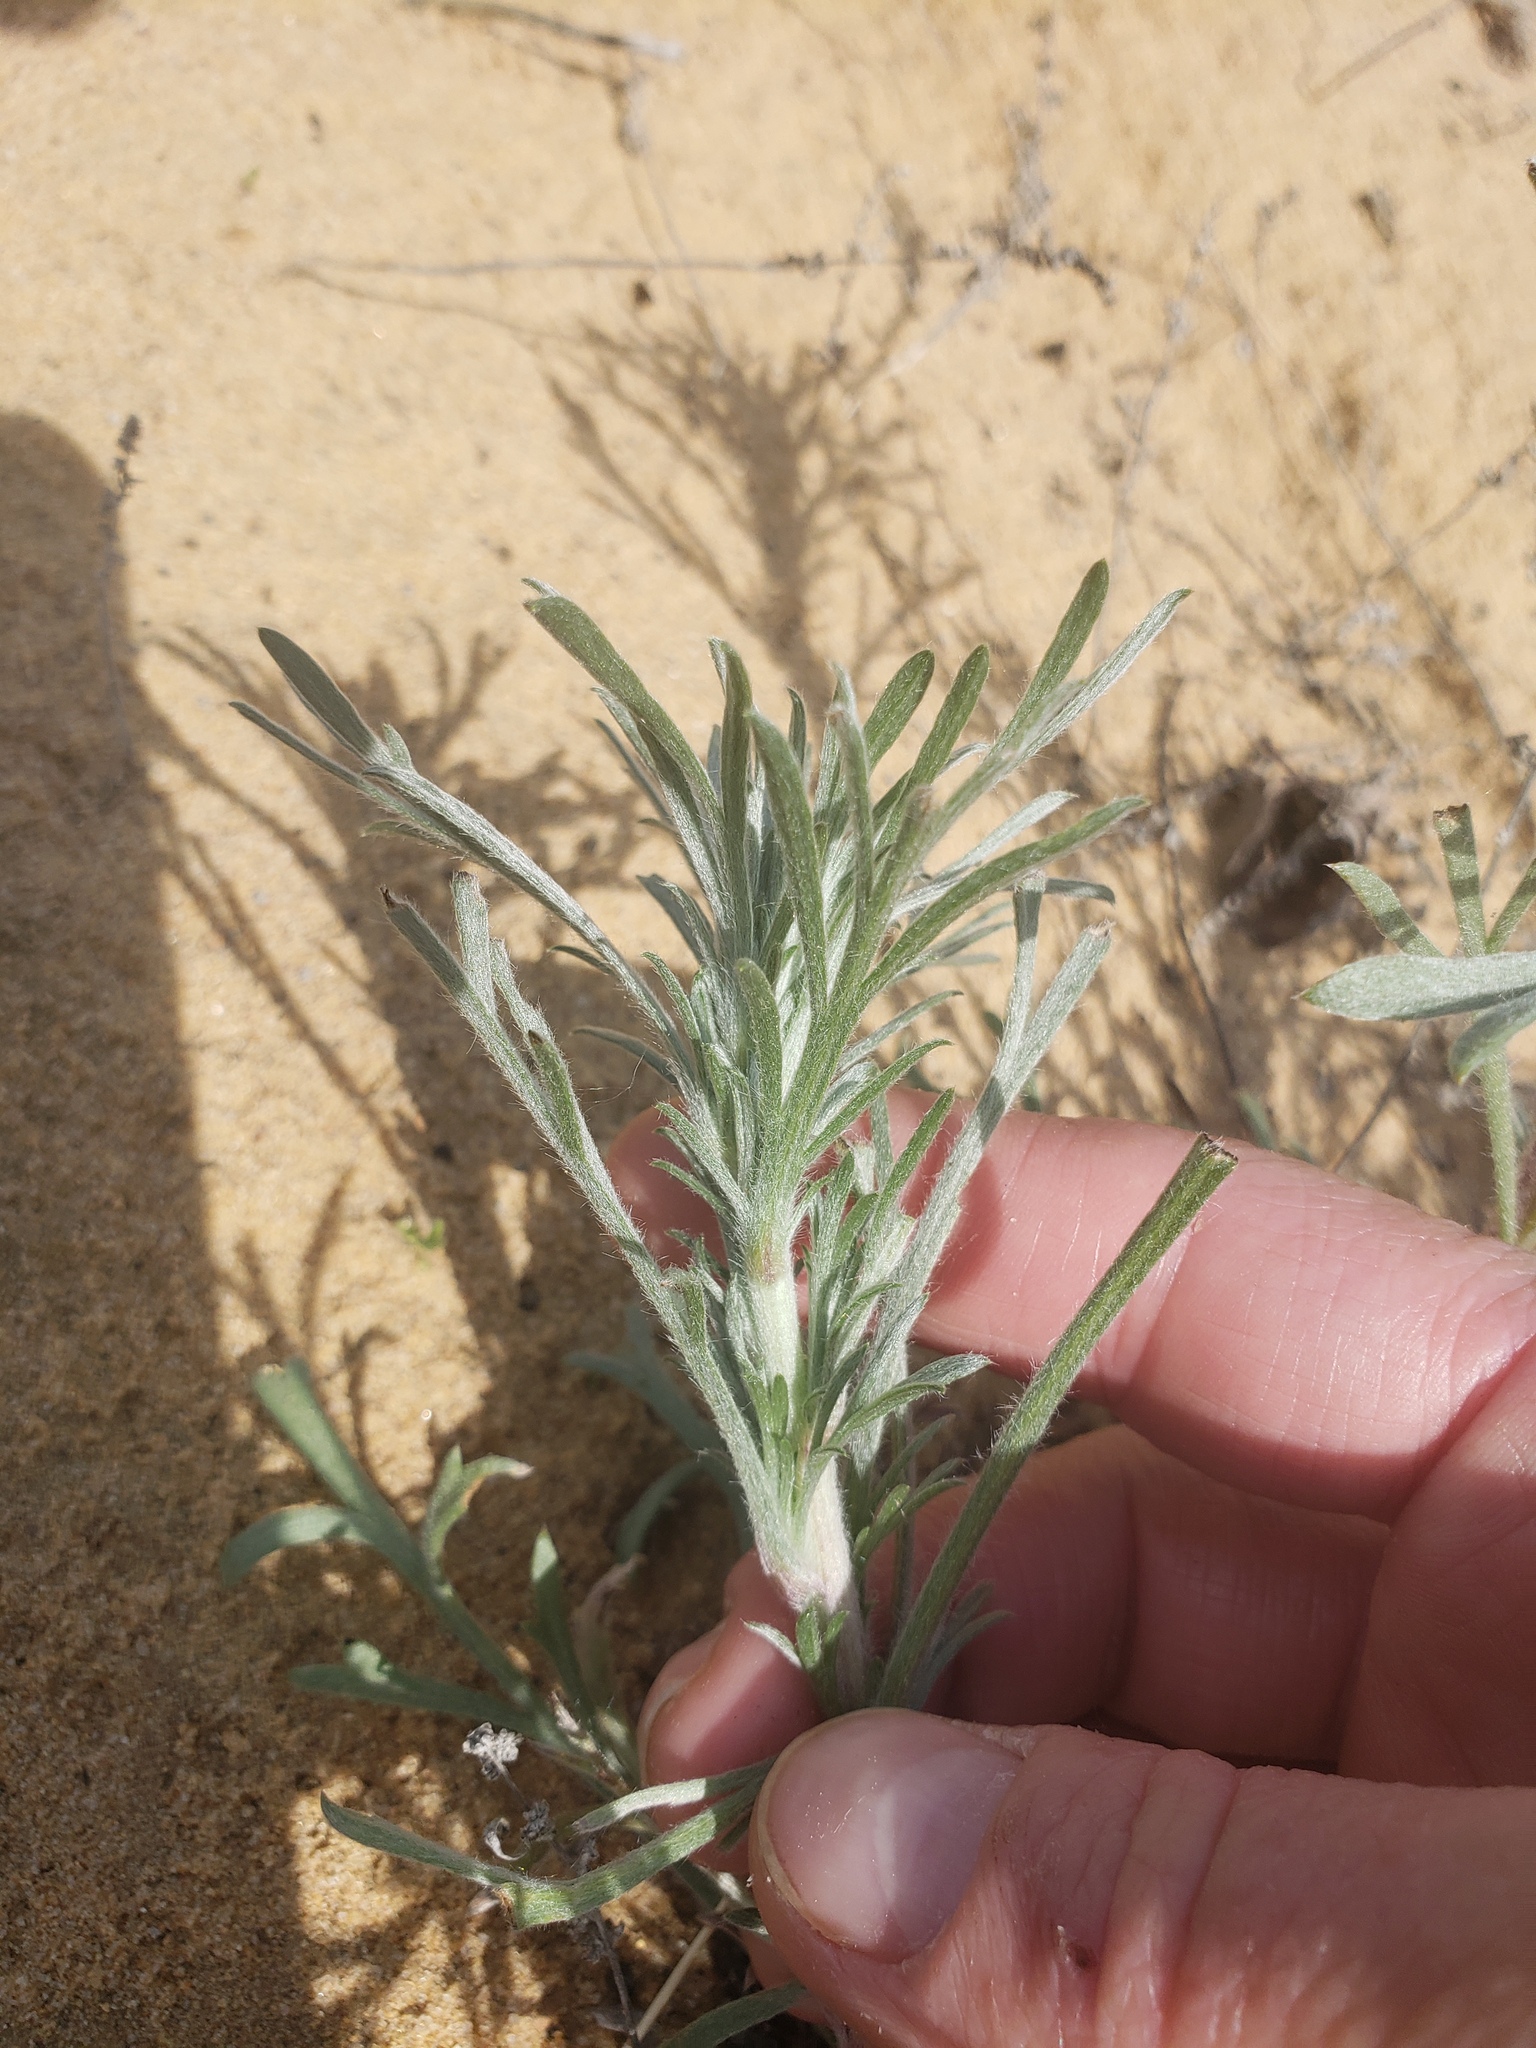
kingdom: Plantae
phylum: Tracheophyta
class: Magnoliopsida
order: Asterales
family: Asteraceae
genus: Artemisia
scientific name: Artemisia campestris
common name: Field wormwood
